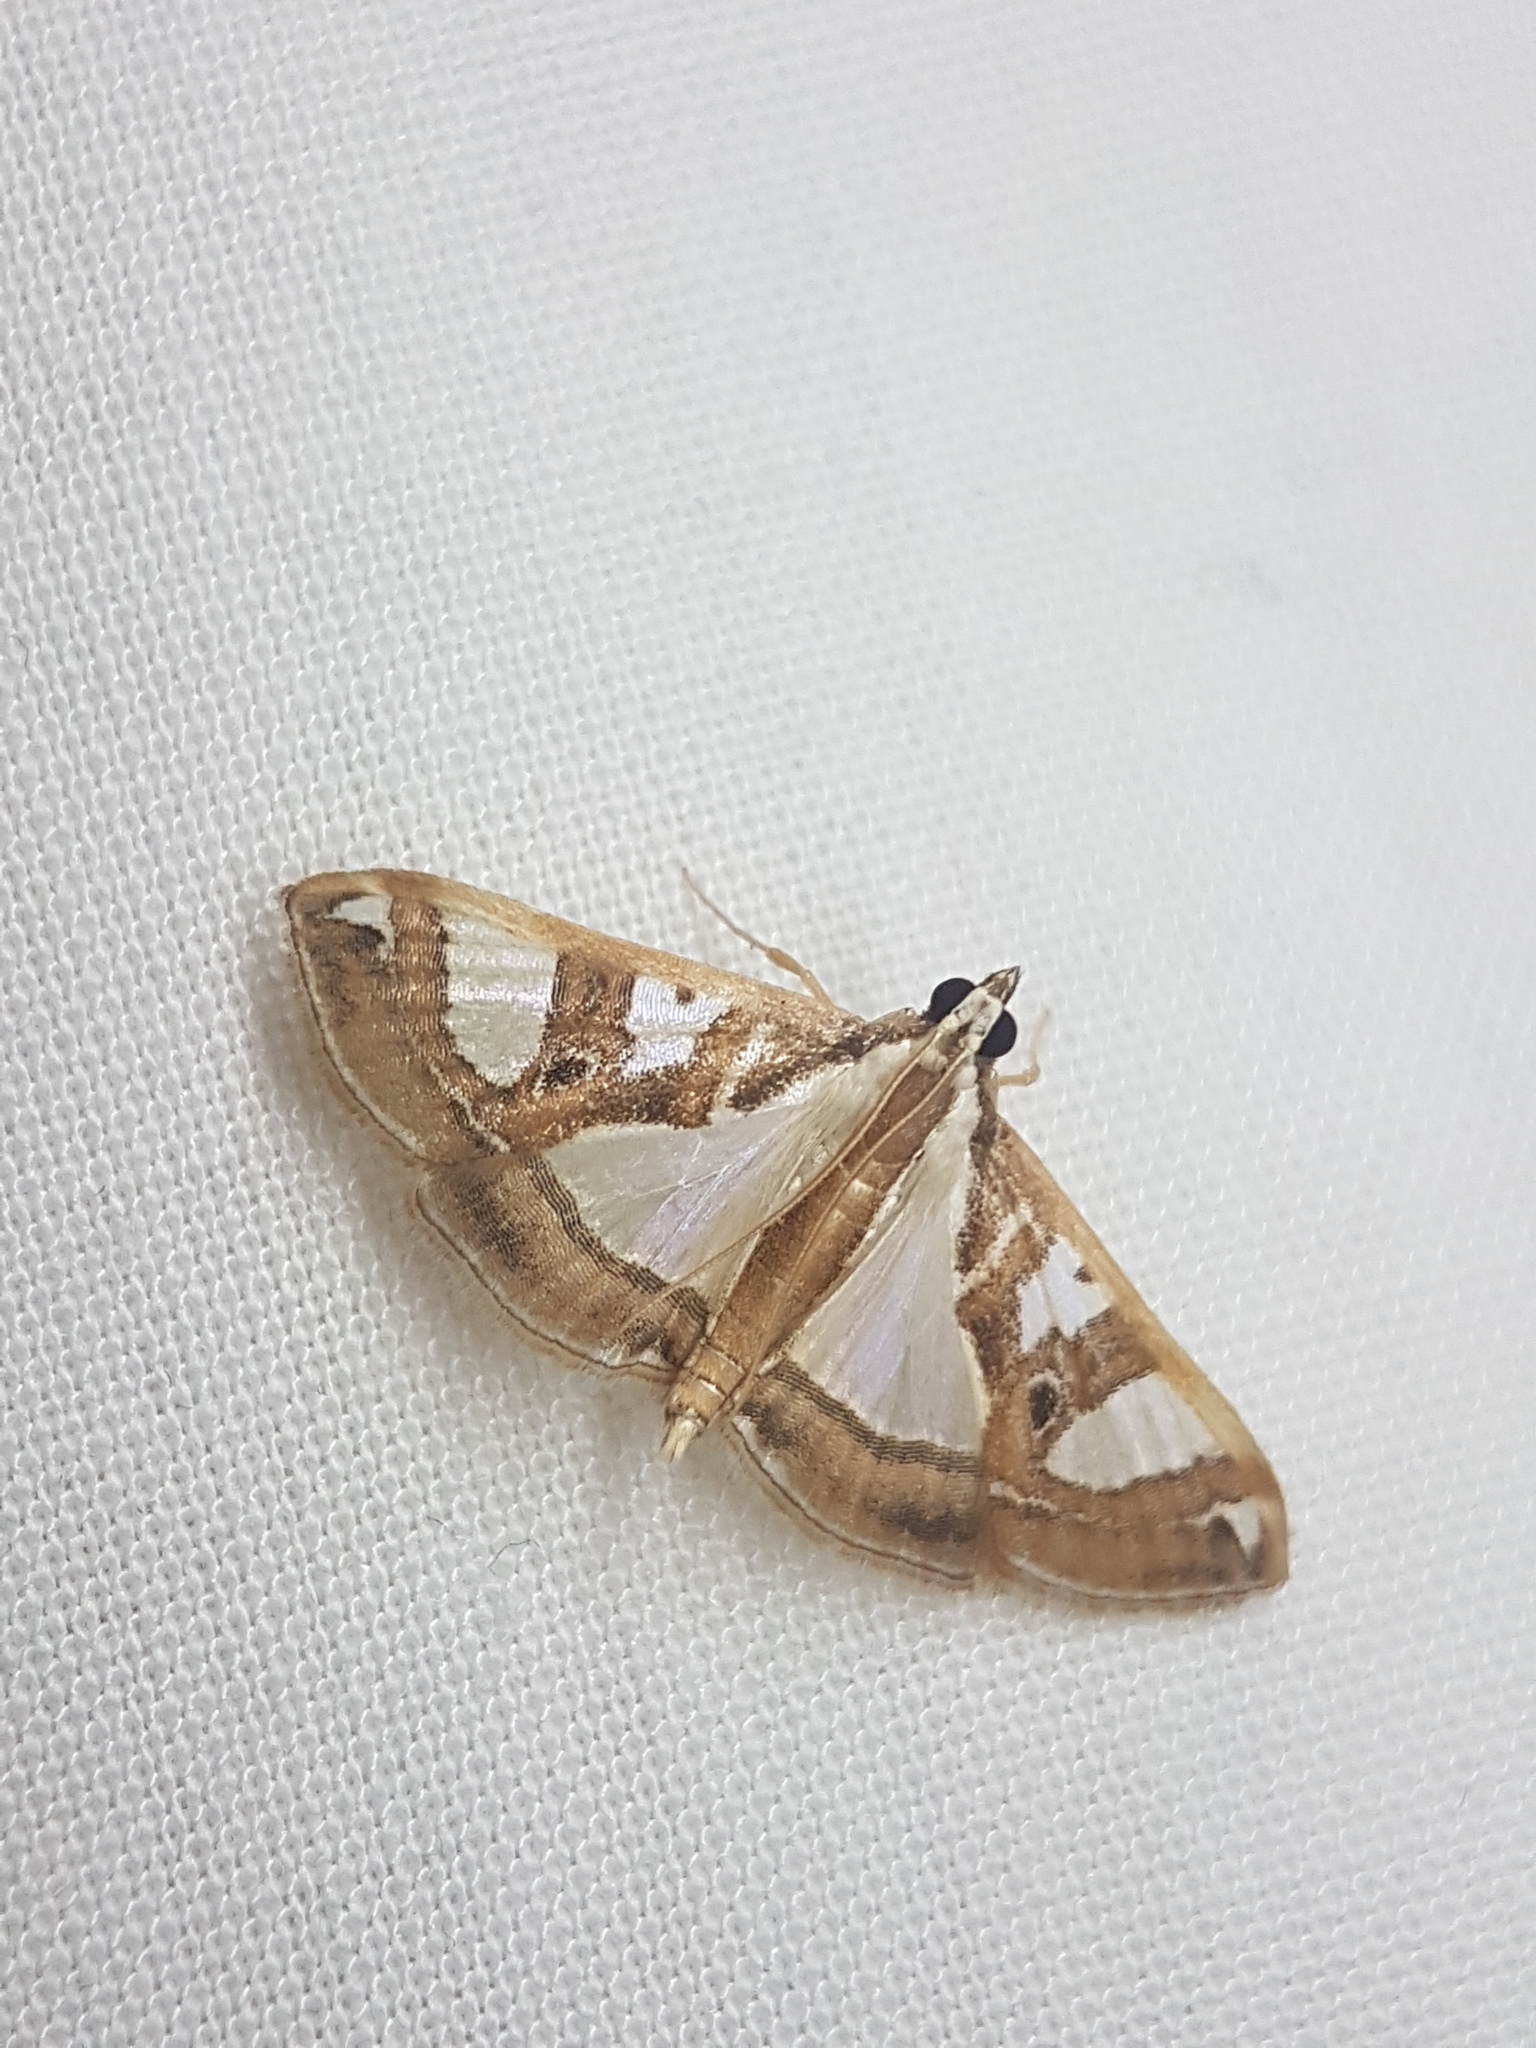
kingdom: Animalia
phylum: Arthropoda
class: Insecta
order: Lepidoptera
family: Crambidae
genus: Glyphodes
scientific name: Glyphodes pyloalis
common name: Lesser mulberry snout moth
